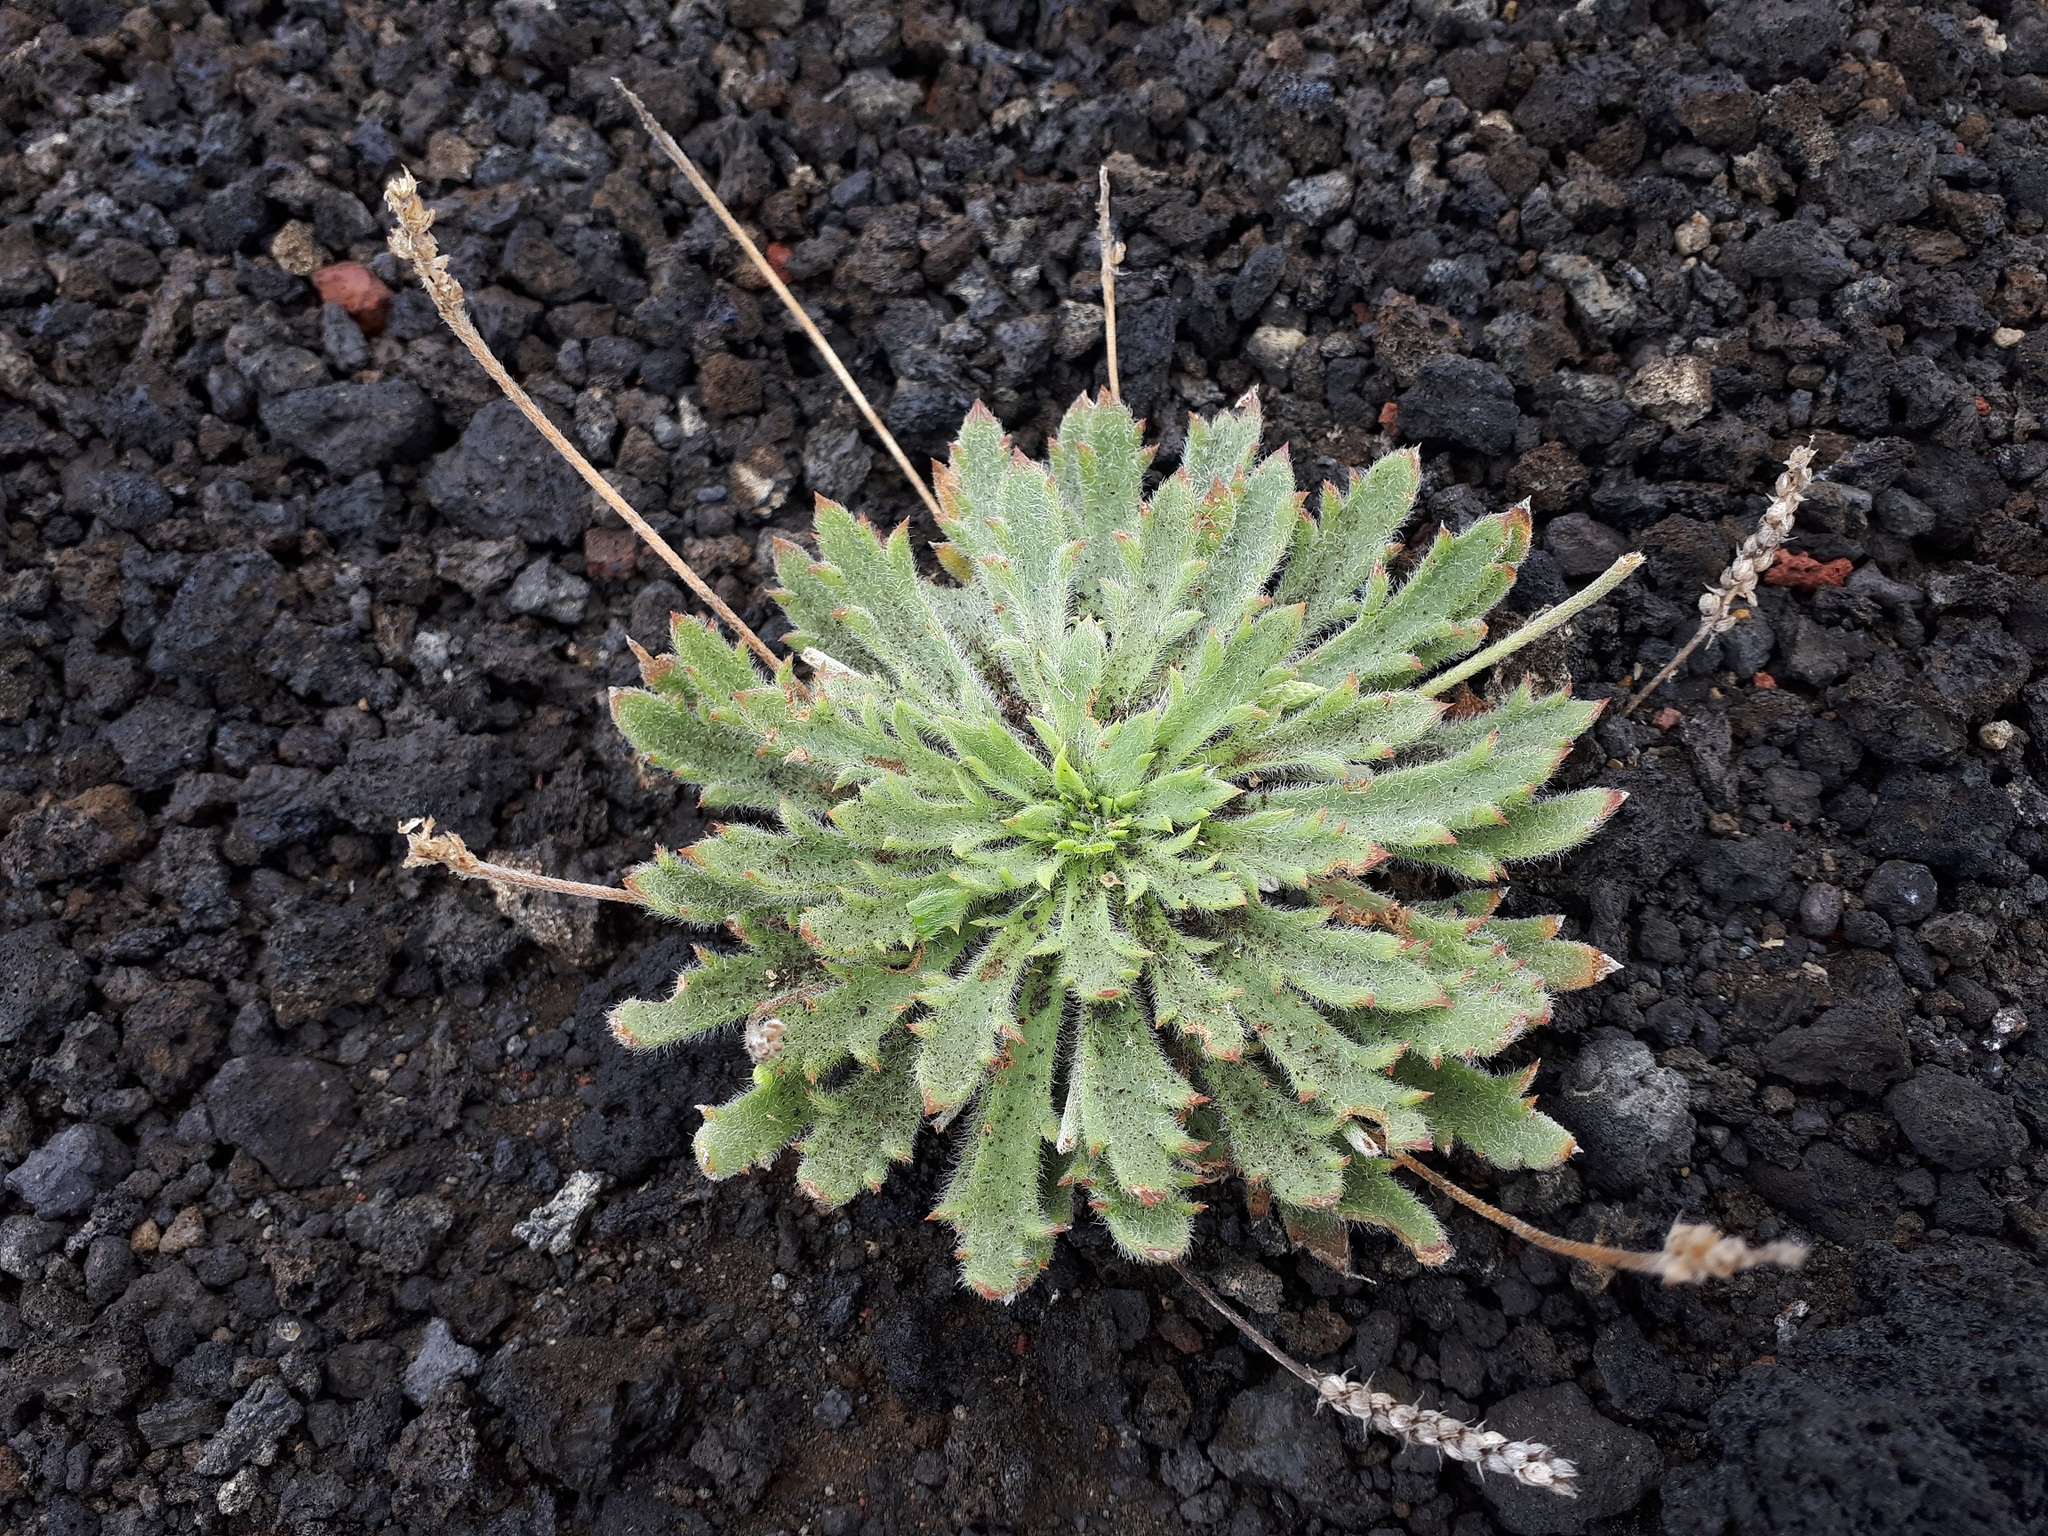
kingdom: Plantae
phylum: Tracheophyta
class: Magnoliopsida
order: Lamiales
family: Plantaginaceae
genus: Plantago
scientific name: Plantago coronopus
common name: Buck's-horn plantain
